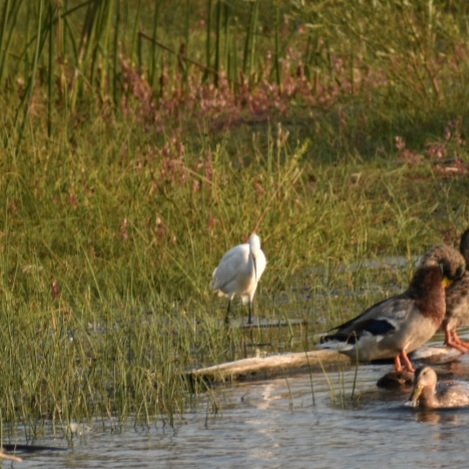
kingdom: Animalia
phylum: Chordata
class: Aves
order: Pelecaniformes
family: Ardeidae
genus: Egretta
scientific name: Egretta thula
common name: Snowy egret
